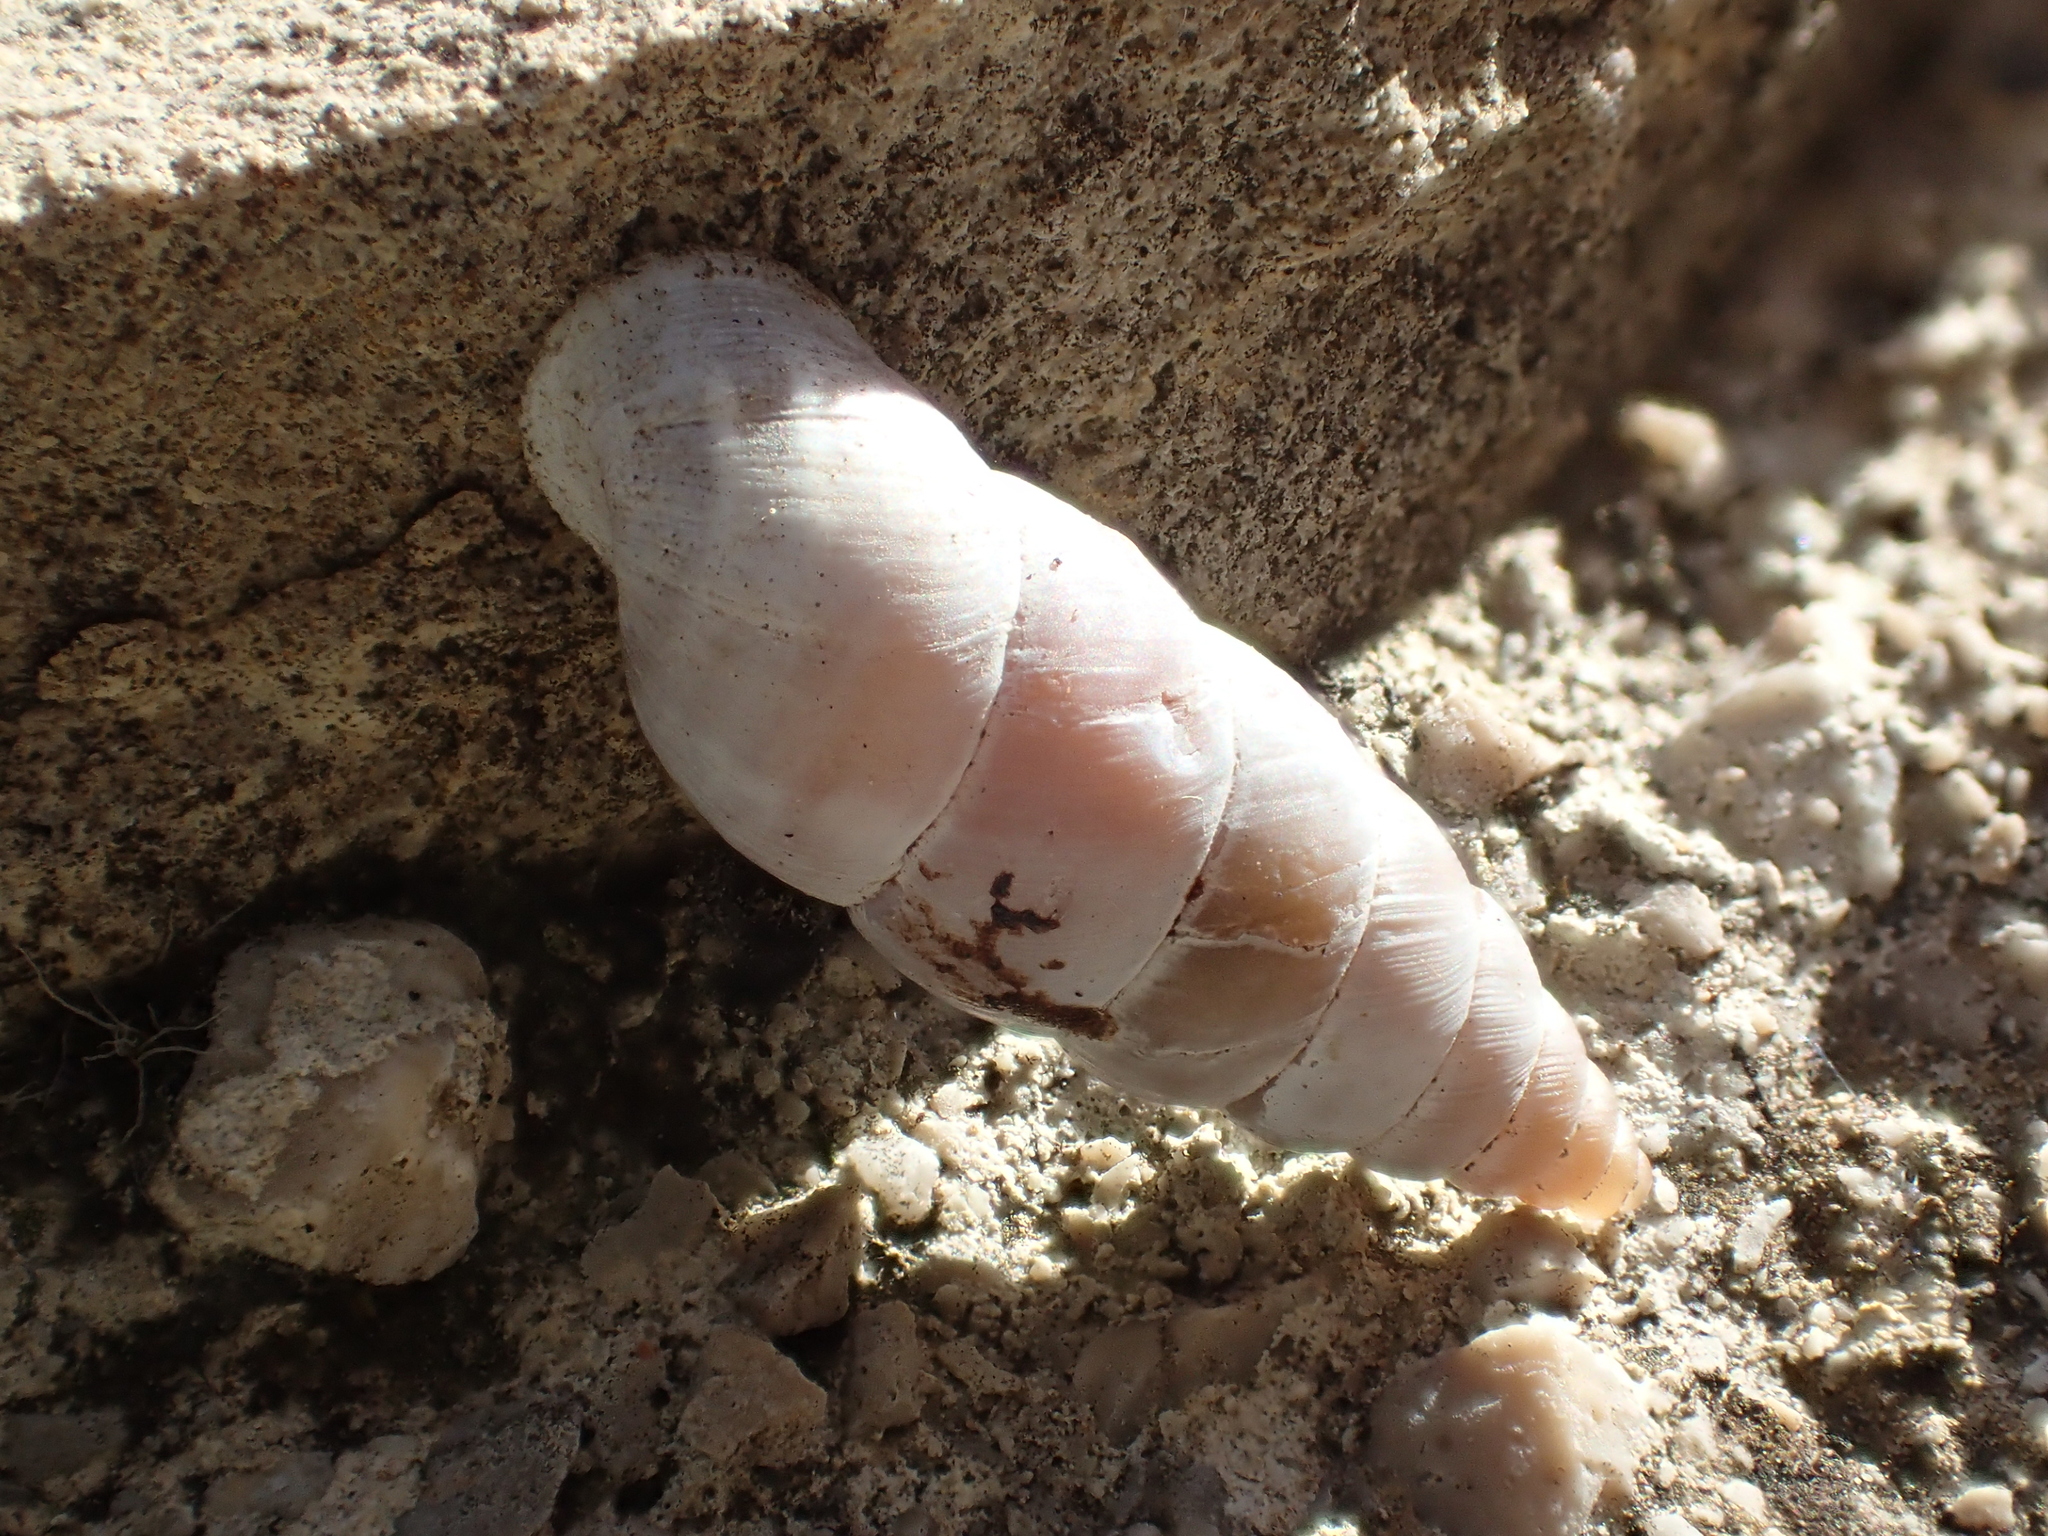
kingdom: Animalia
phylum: Mollusca
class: Gastropoda
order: Stylommatophora
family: Chondrinidae
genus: Solatopupa
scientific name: Solatopupa similis
